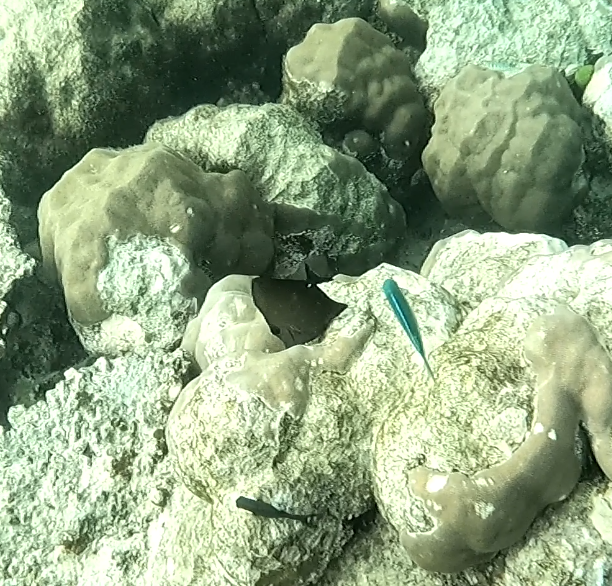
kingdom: Animalia
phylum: Chordata
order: Perciformes
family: Acanthuridae
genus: Zebrasoma
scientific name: Zebrasoma scopas
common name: Twotone tang
